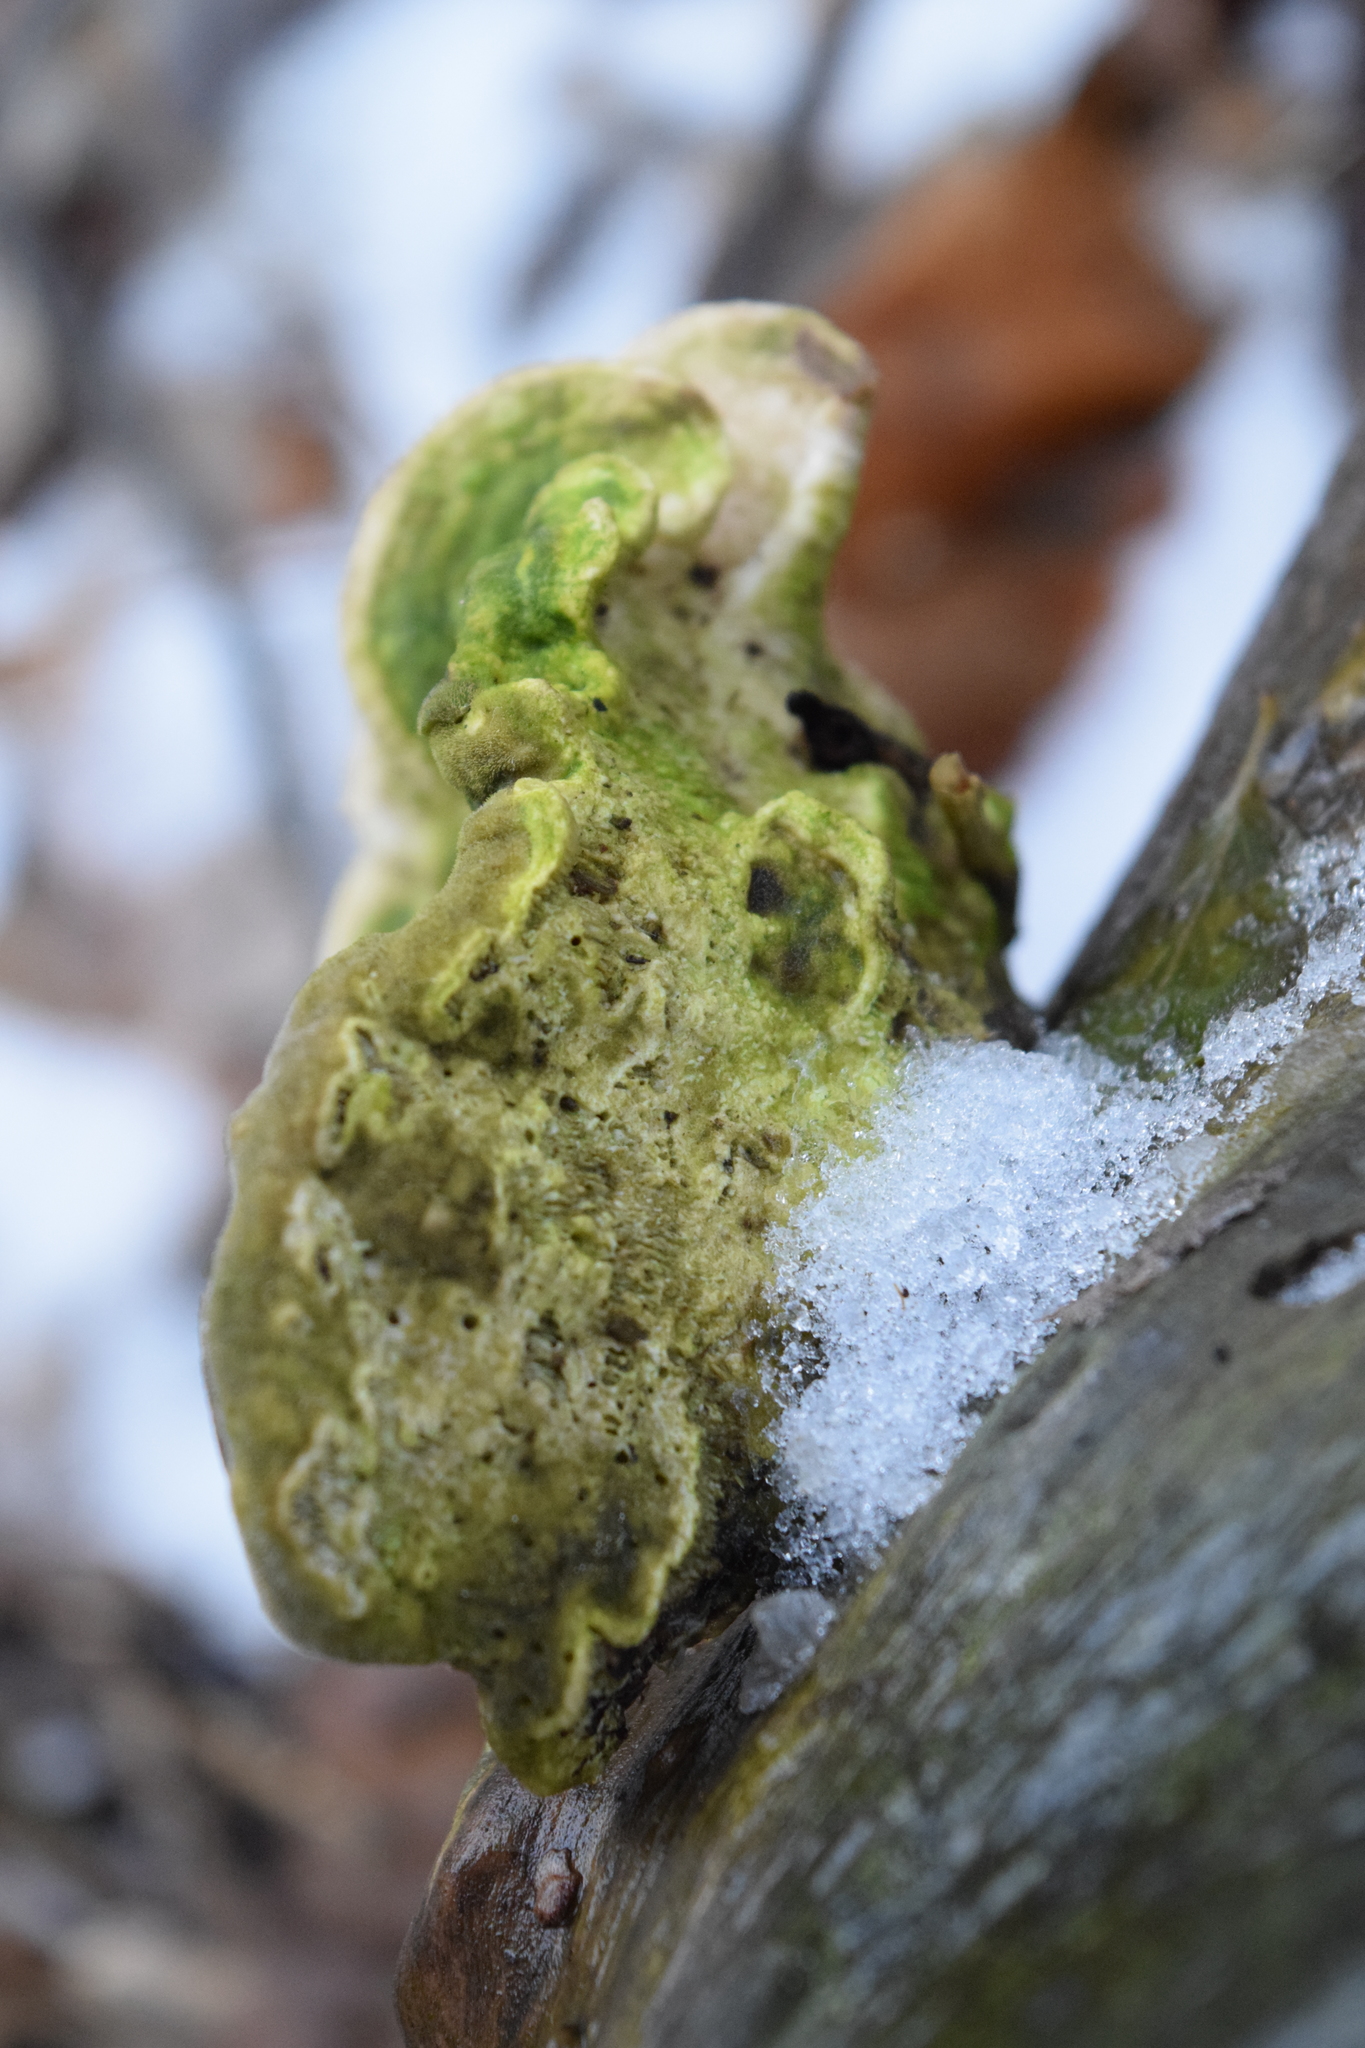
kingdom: Fungi
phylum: Basidiomycota
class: Agaricomycetes
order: Polyporales
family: Polyporaceae
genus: Trametes
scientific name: Trametes gibbosa
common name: Lumpy bracket
